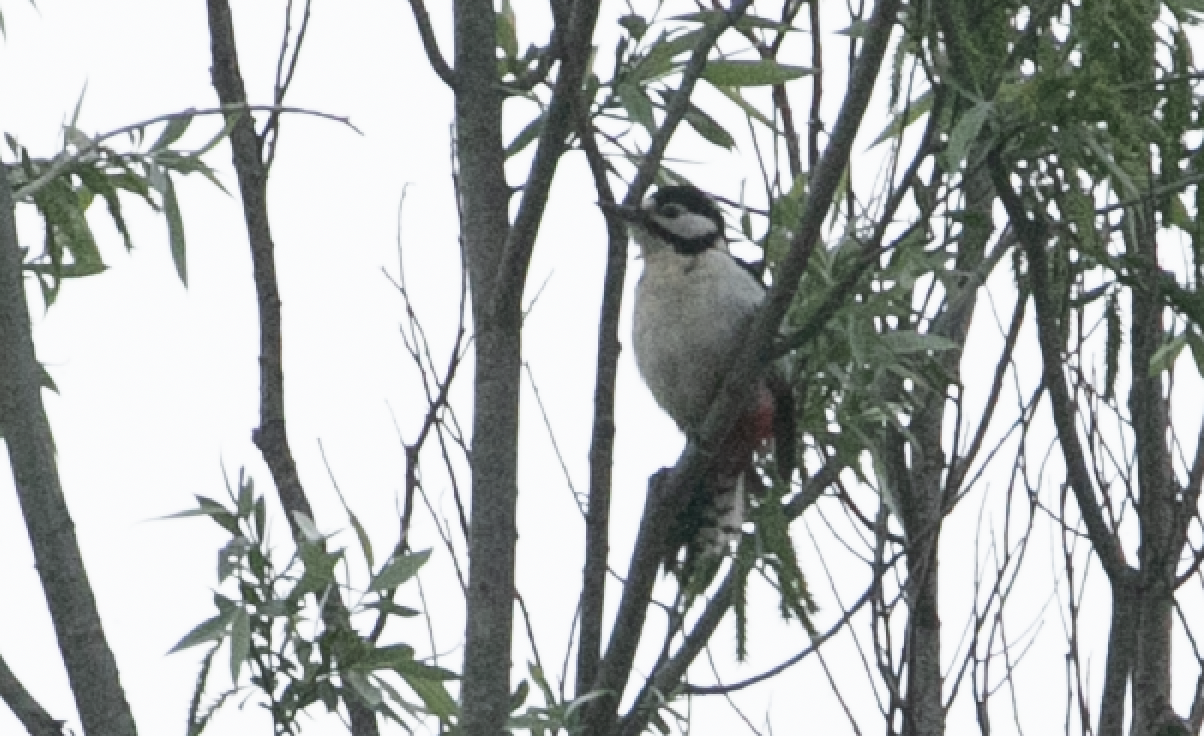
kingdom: Animalia
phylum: Chordata
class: Aves
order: Piciformes
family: Picidae
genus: Dendrocopos
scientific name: Dendrocopos major
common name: Great spotted woodpecker
